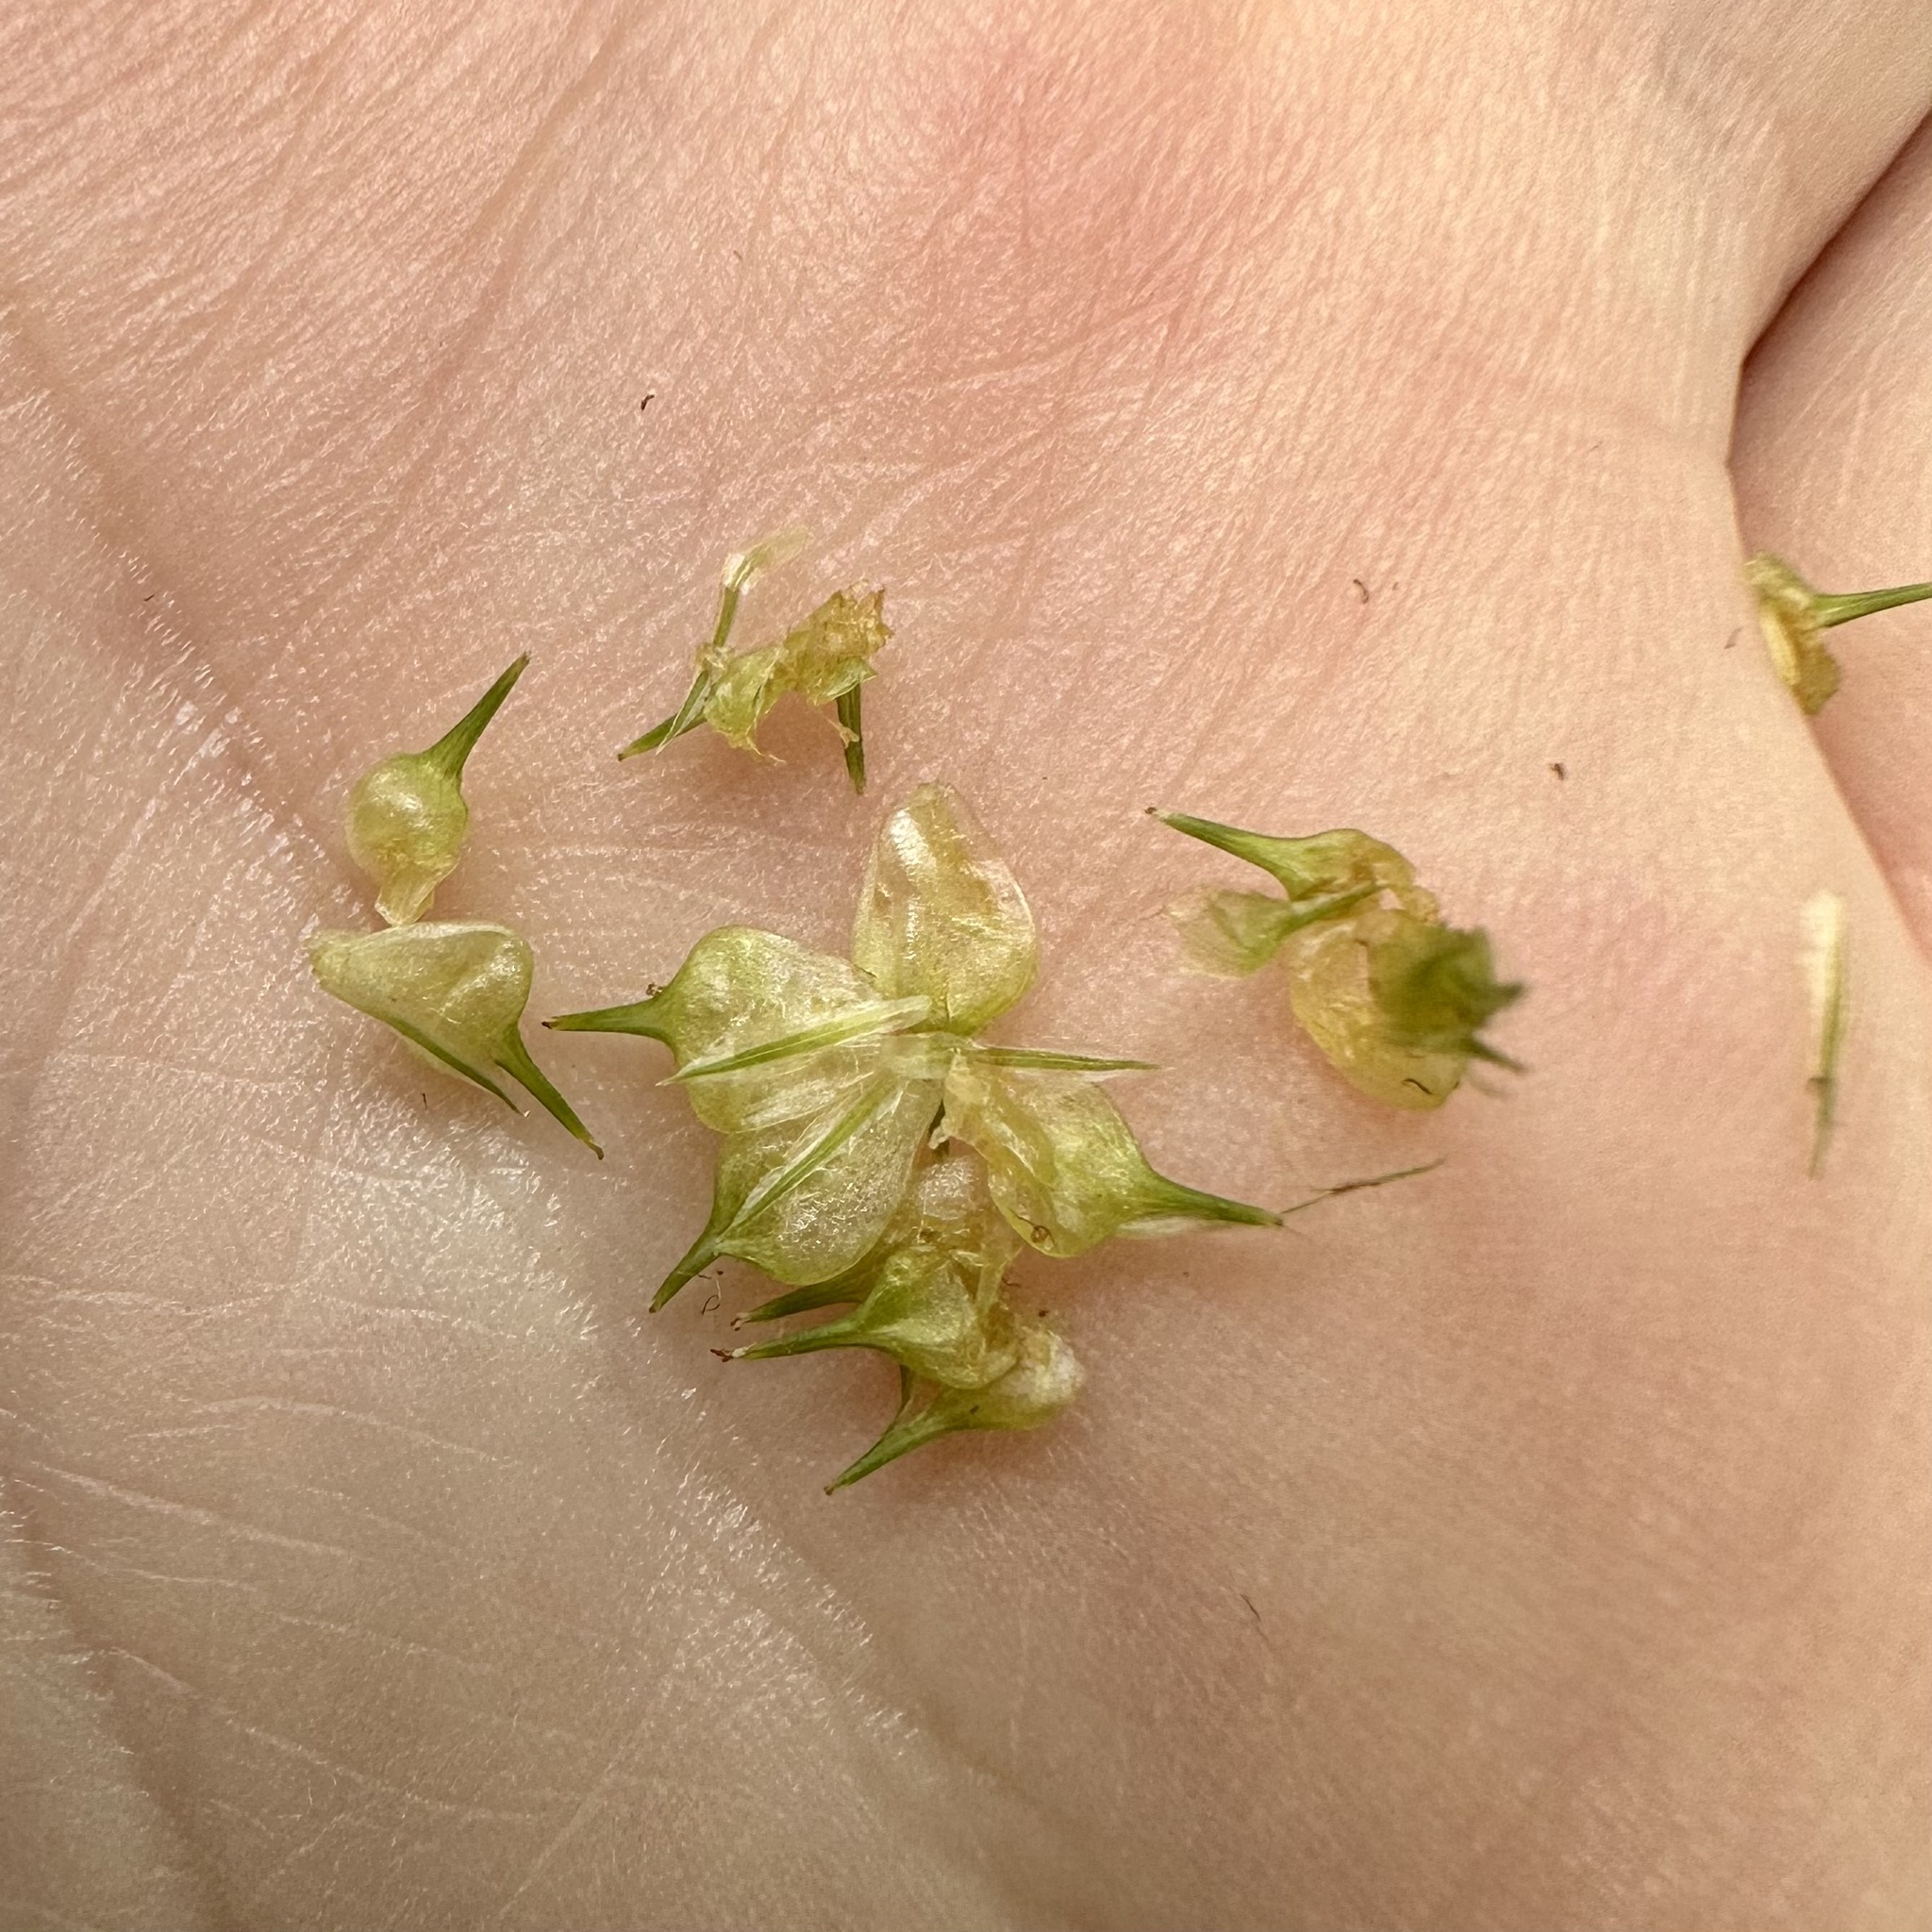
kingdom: Plantae
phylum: Tracheophyta
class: Liliopsida
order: Poales
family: Cyperaceae
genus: Carex
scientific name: Carex squarrosa
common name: Narrow-leaved cattail sedge
